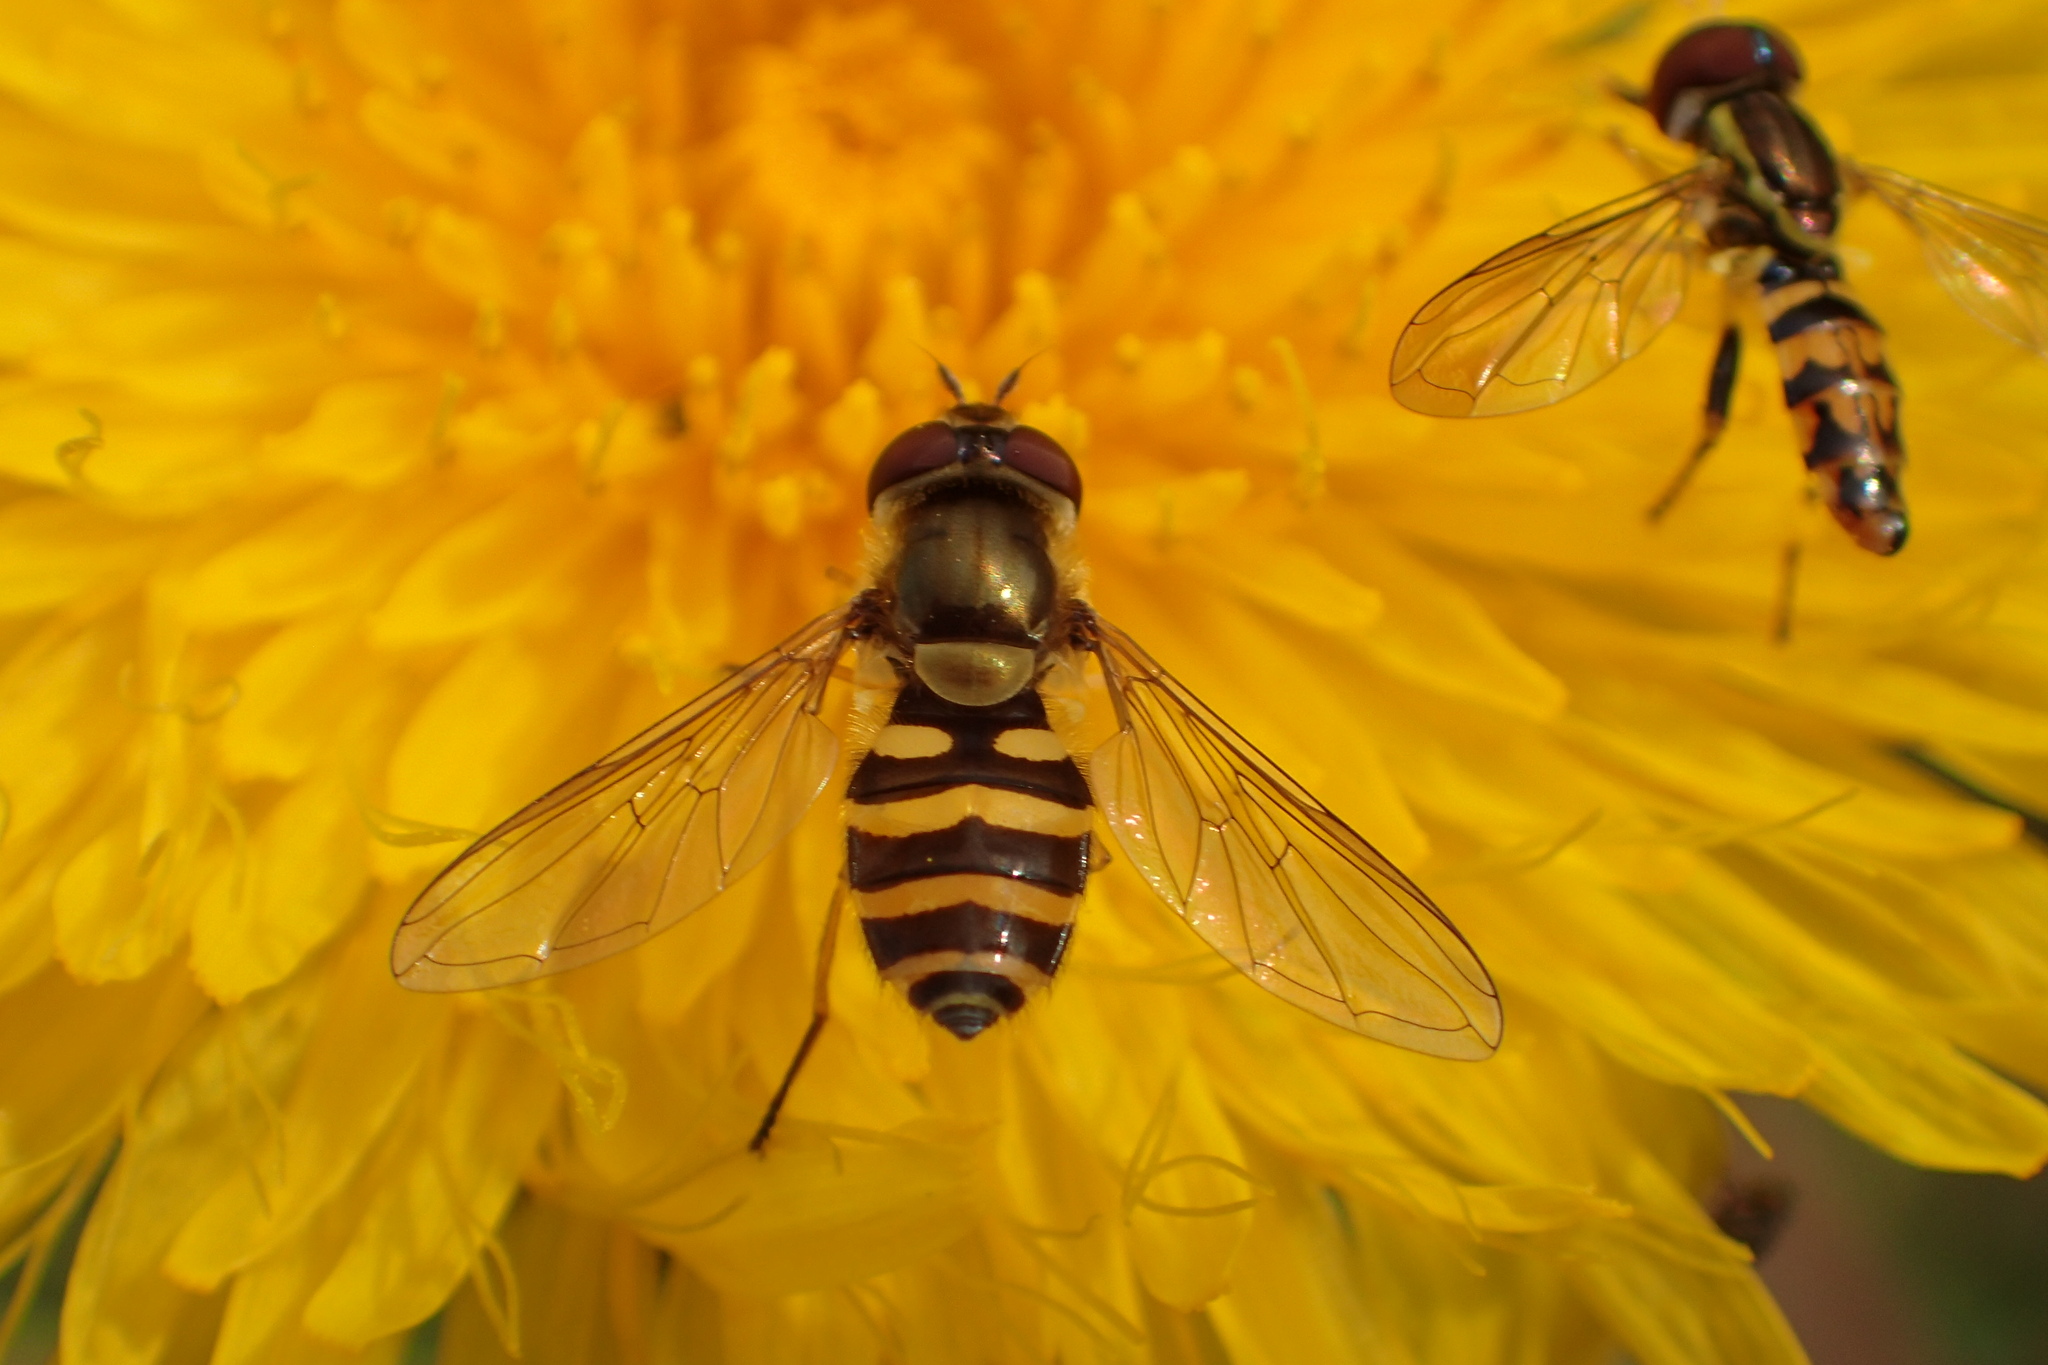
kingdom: Animalia
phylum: Arthropoda
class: Insecta
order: Diptera
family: Syrphidae
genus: Syrphus
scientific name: Syrphus
